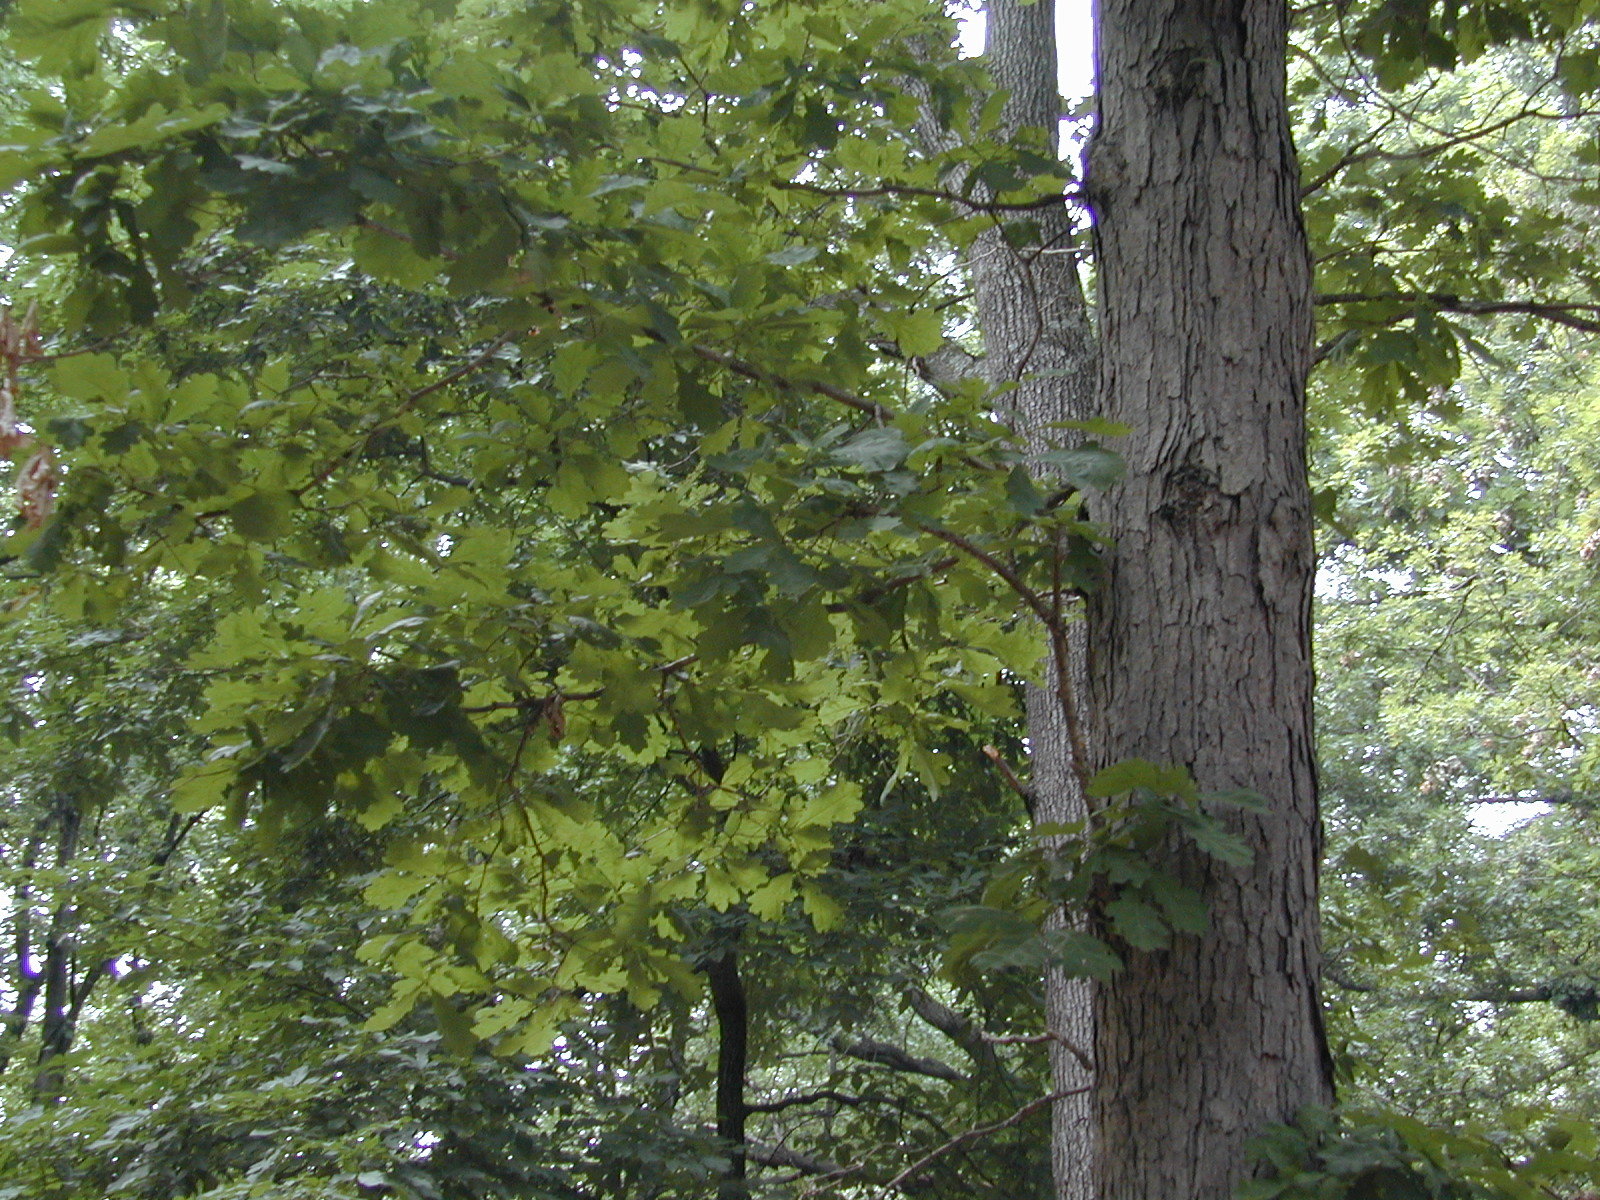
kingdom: Plantae
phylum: Tracheophyta
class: Magnoliopsida
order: Fagales
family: Fagaceae
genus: Quercus
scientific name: Quercus alba
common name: White oak
